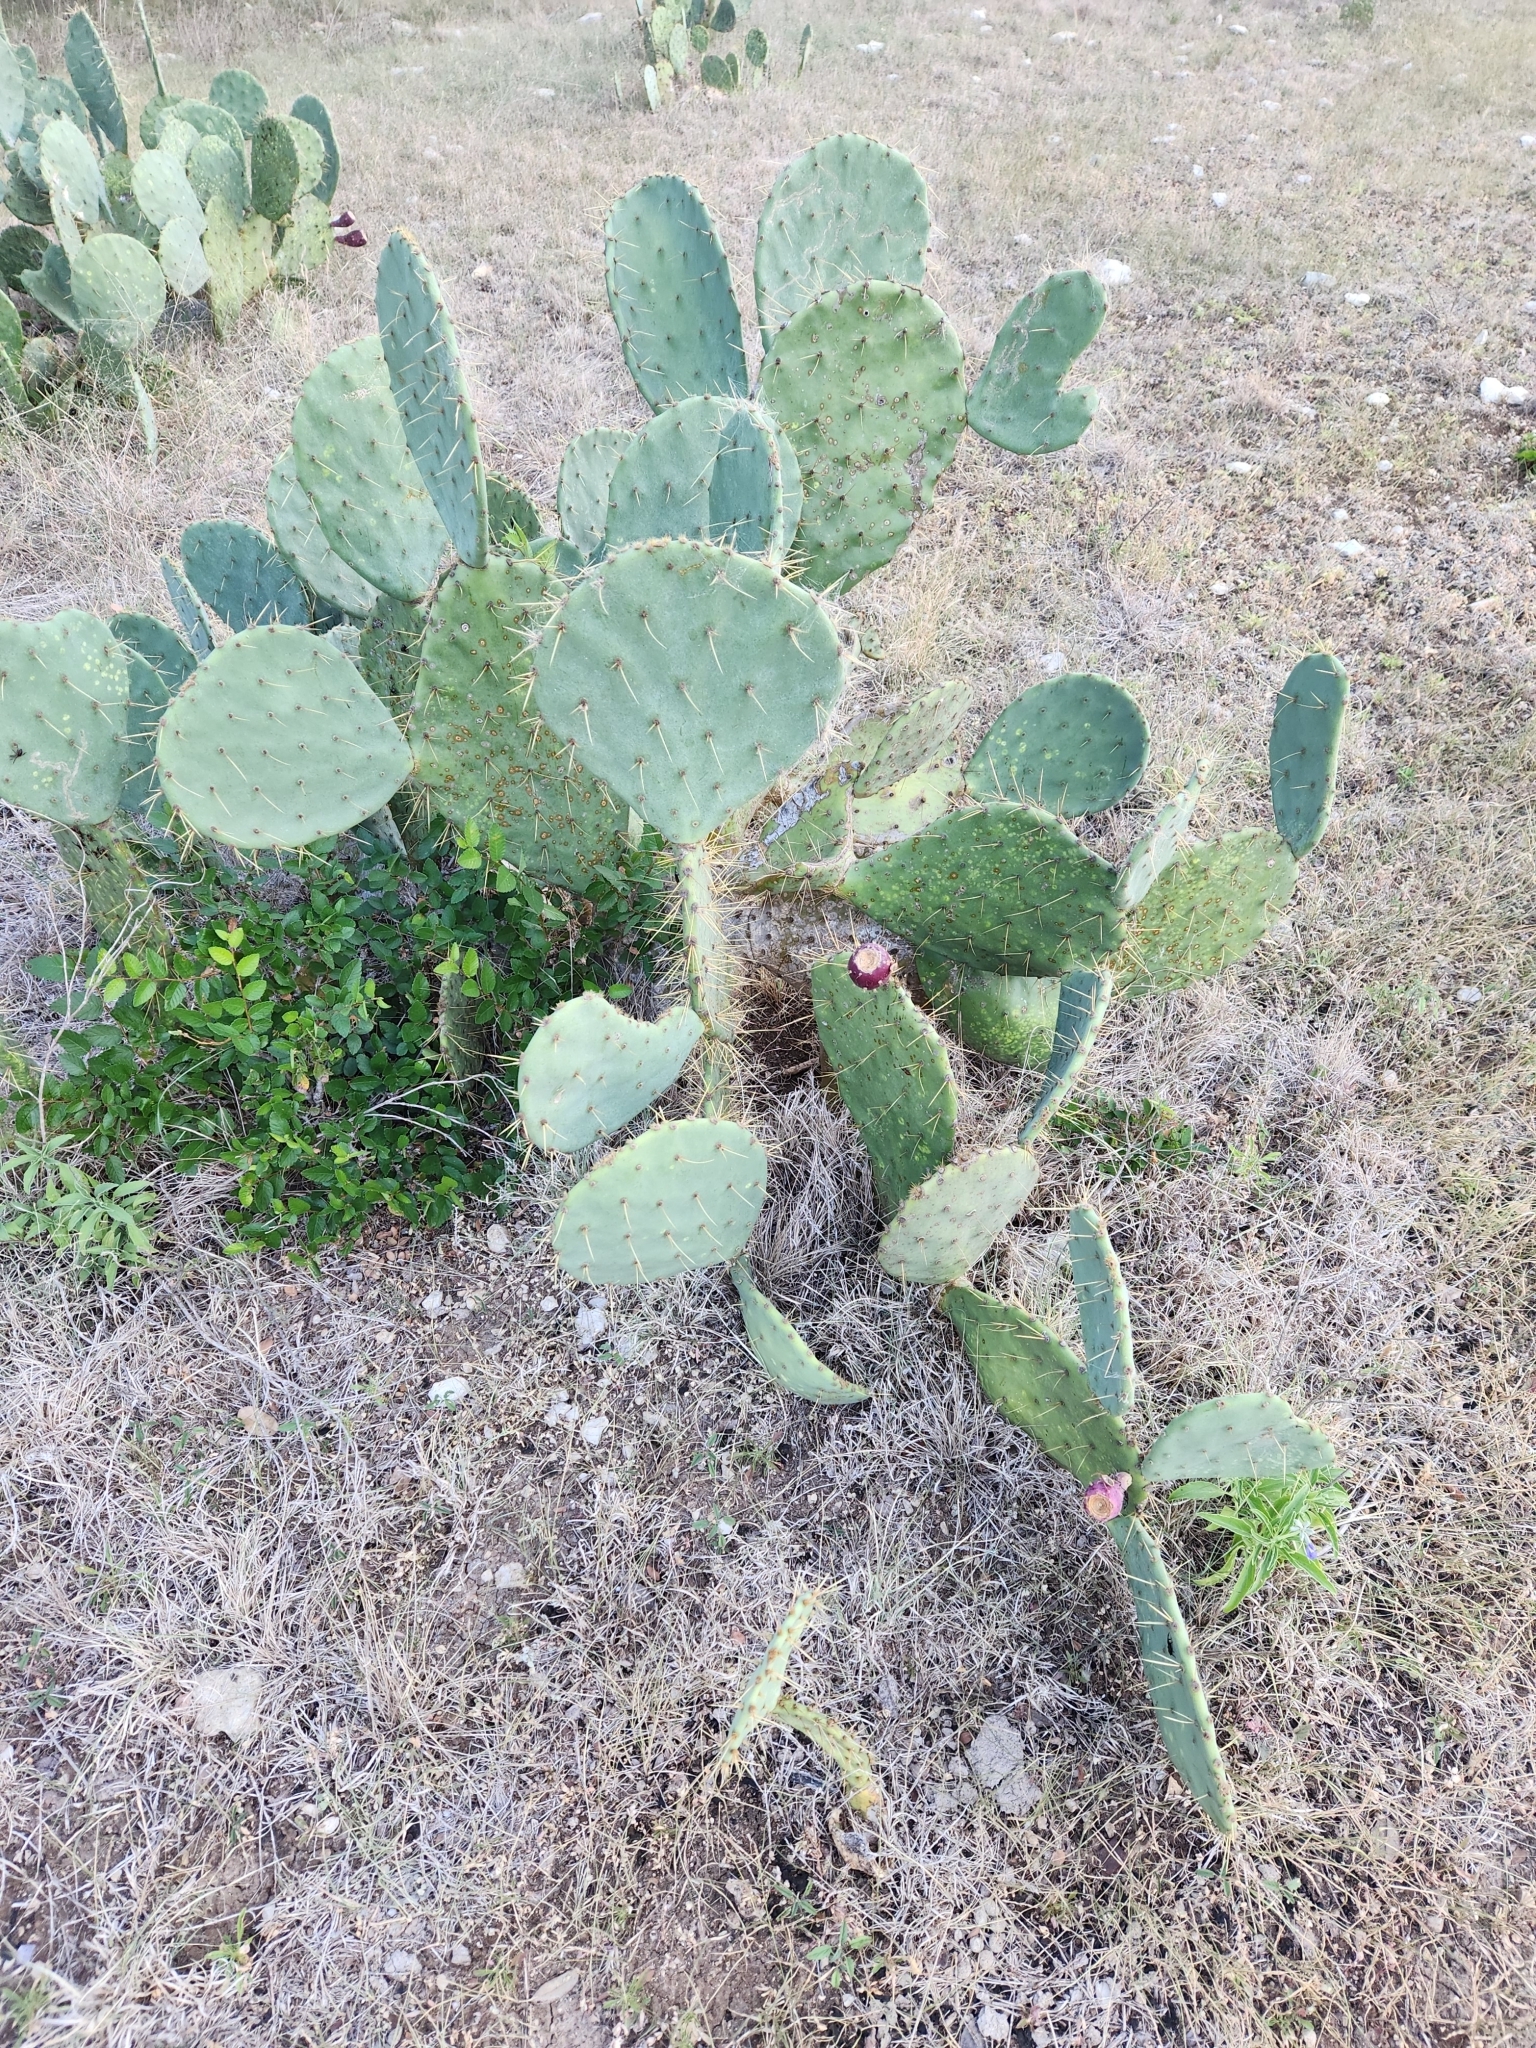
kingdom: Plantae
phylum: Tracheophyta
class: Magnoliopsida
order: Caryophyllales
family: Cactaceae
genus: Opuntia
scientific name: Opuntia orbiculata
